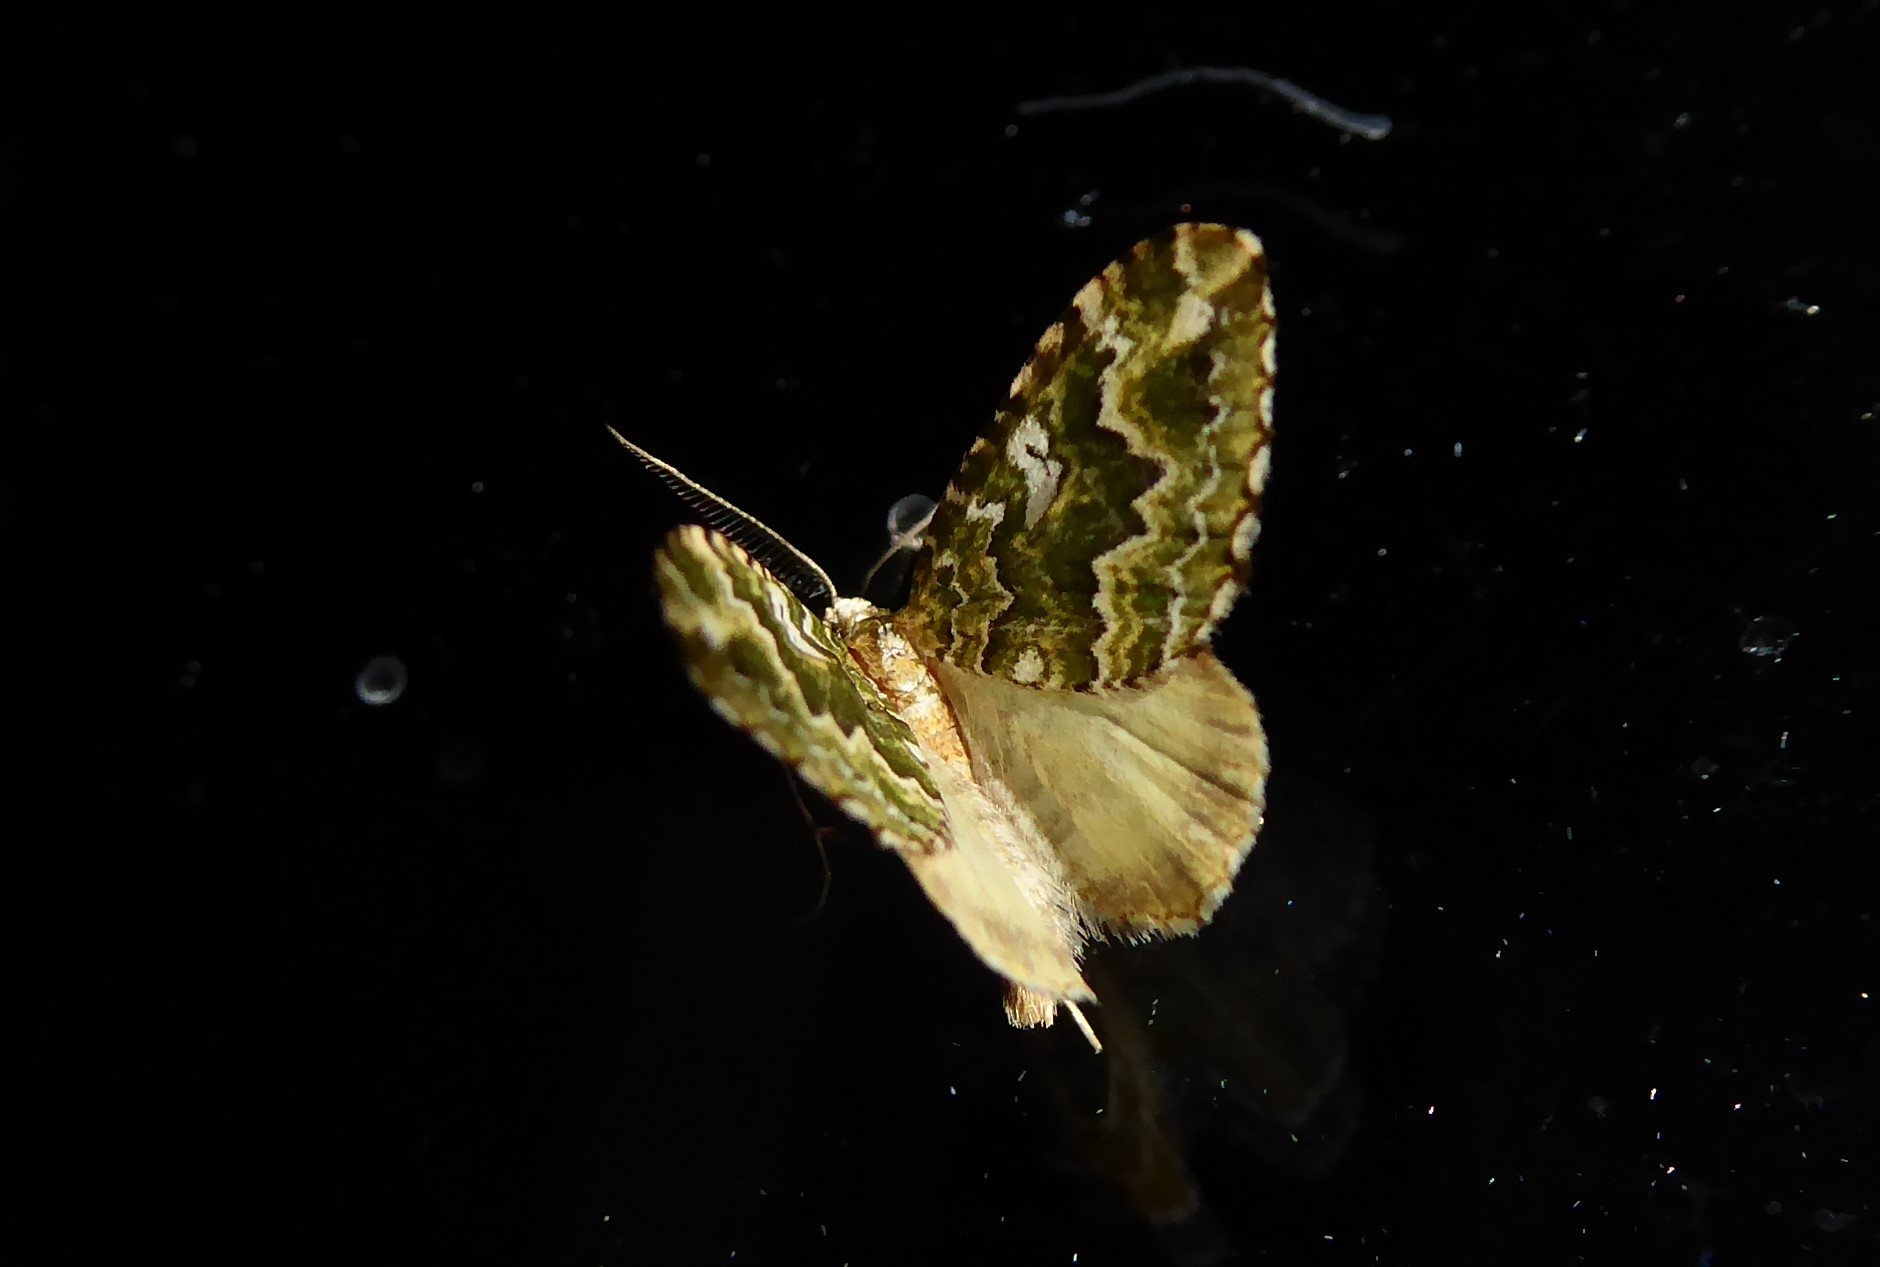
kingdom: Animalia
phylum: Arthropoda
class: Insecta
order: Lepidoptera
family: Geometridae
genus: Asaphodes
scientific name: Asaphodes beata
